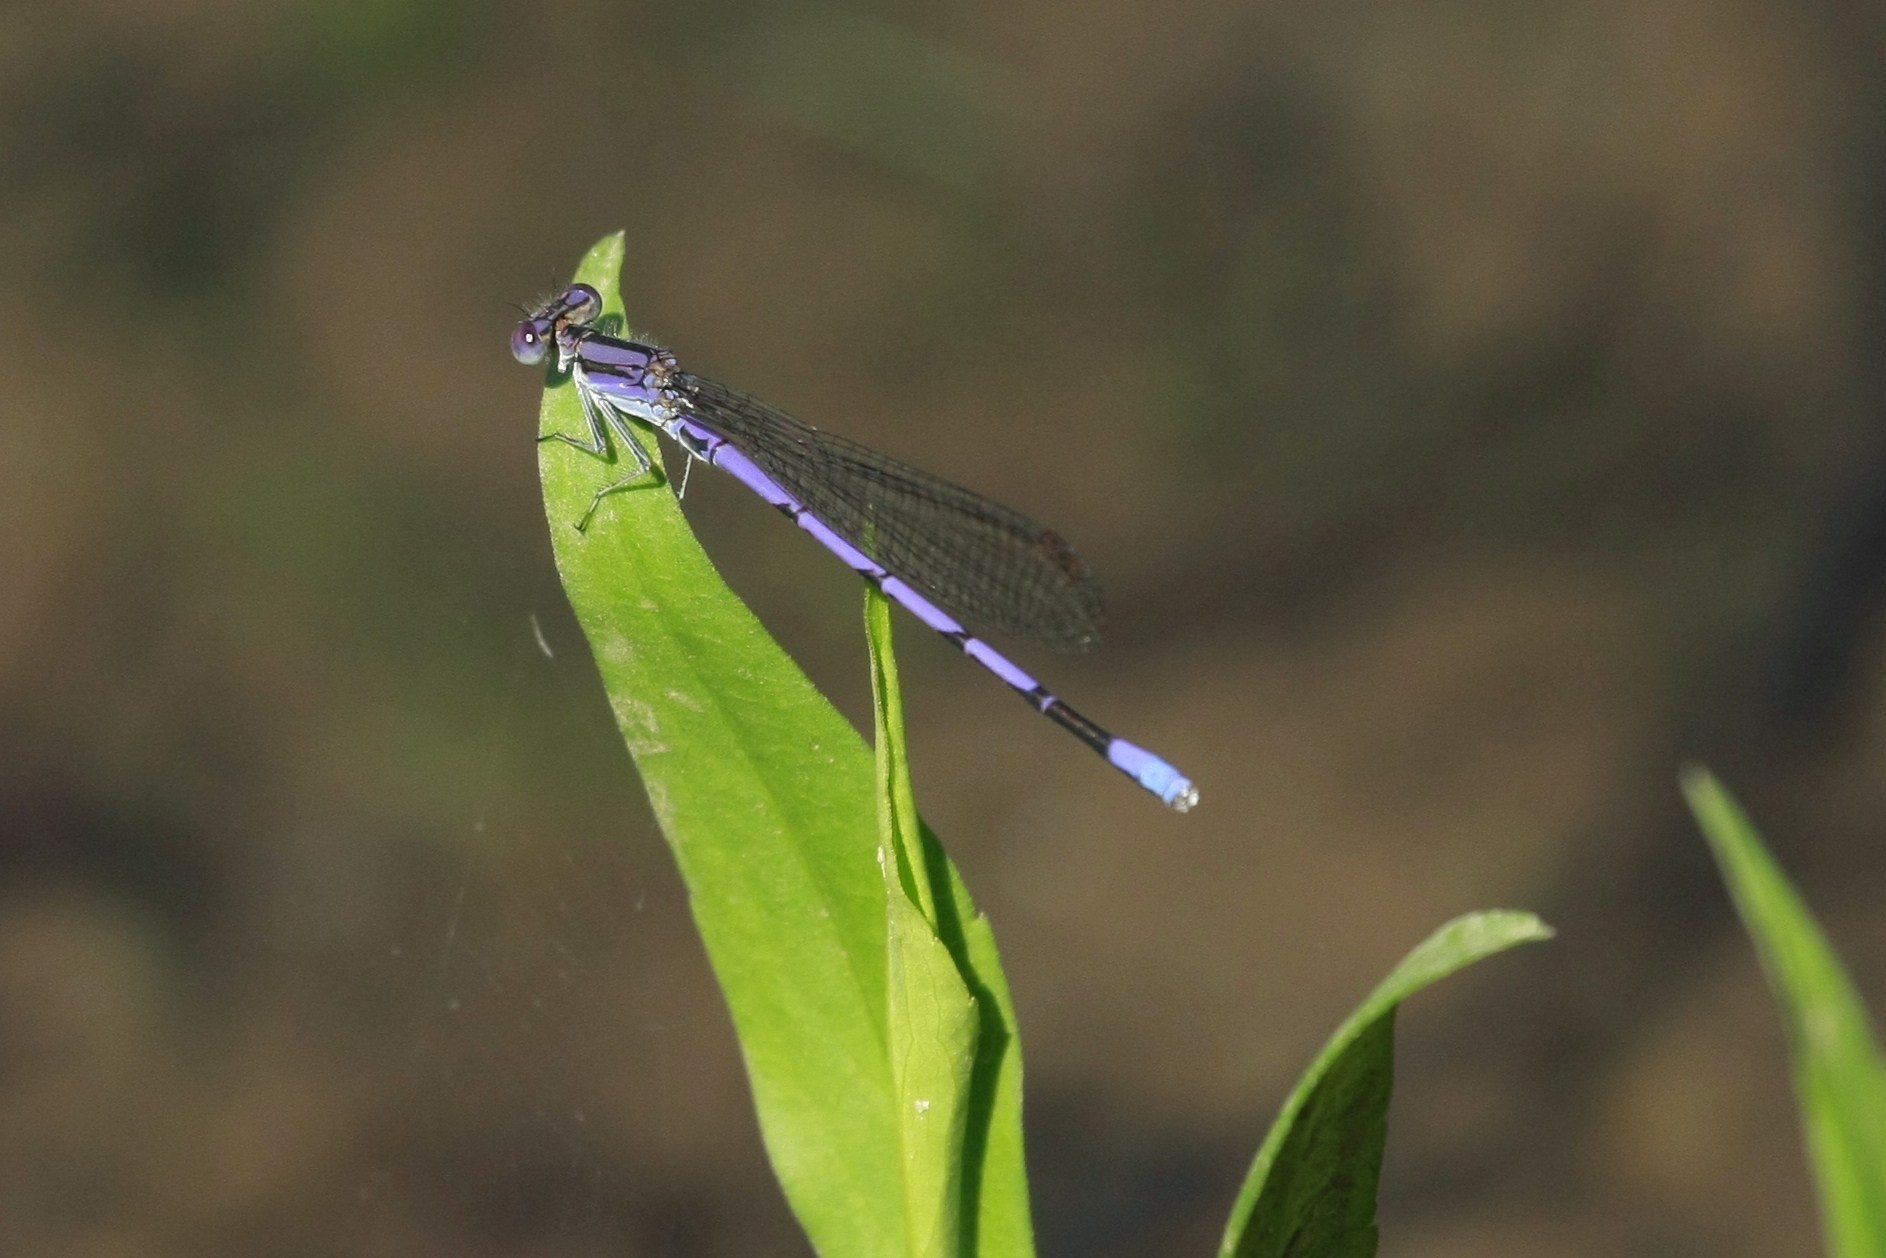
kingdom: Animalia
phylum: Arthropoda
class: Insecta
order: Odonata
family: Coenagrionidae
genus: Argia
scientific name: Argia fumipennis
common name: Variable dancer
